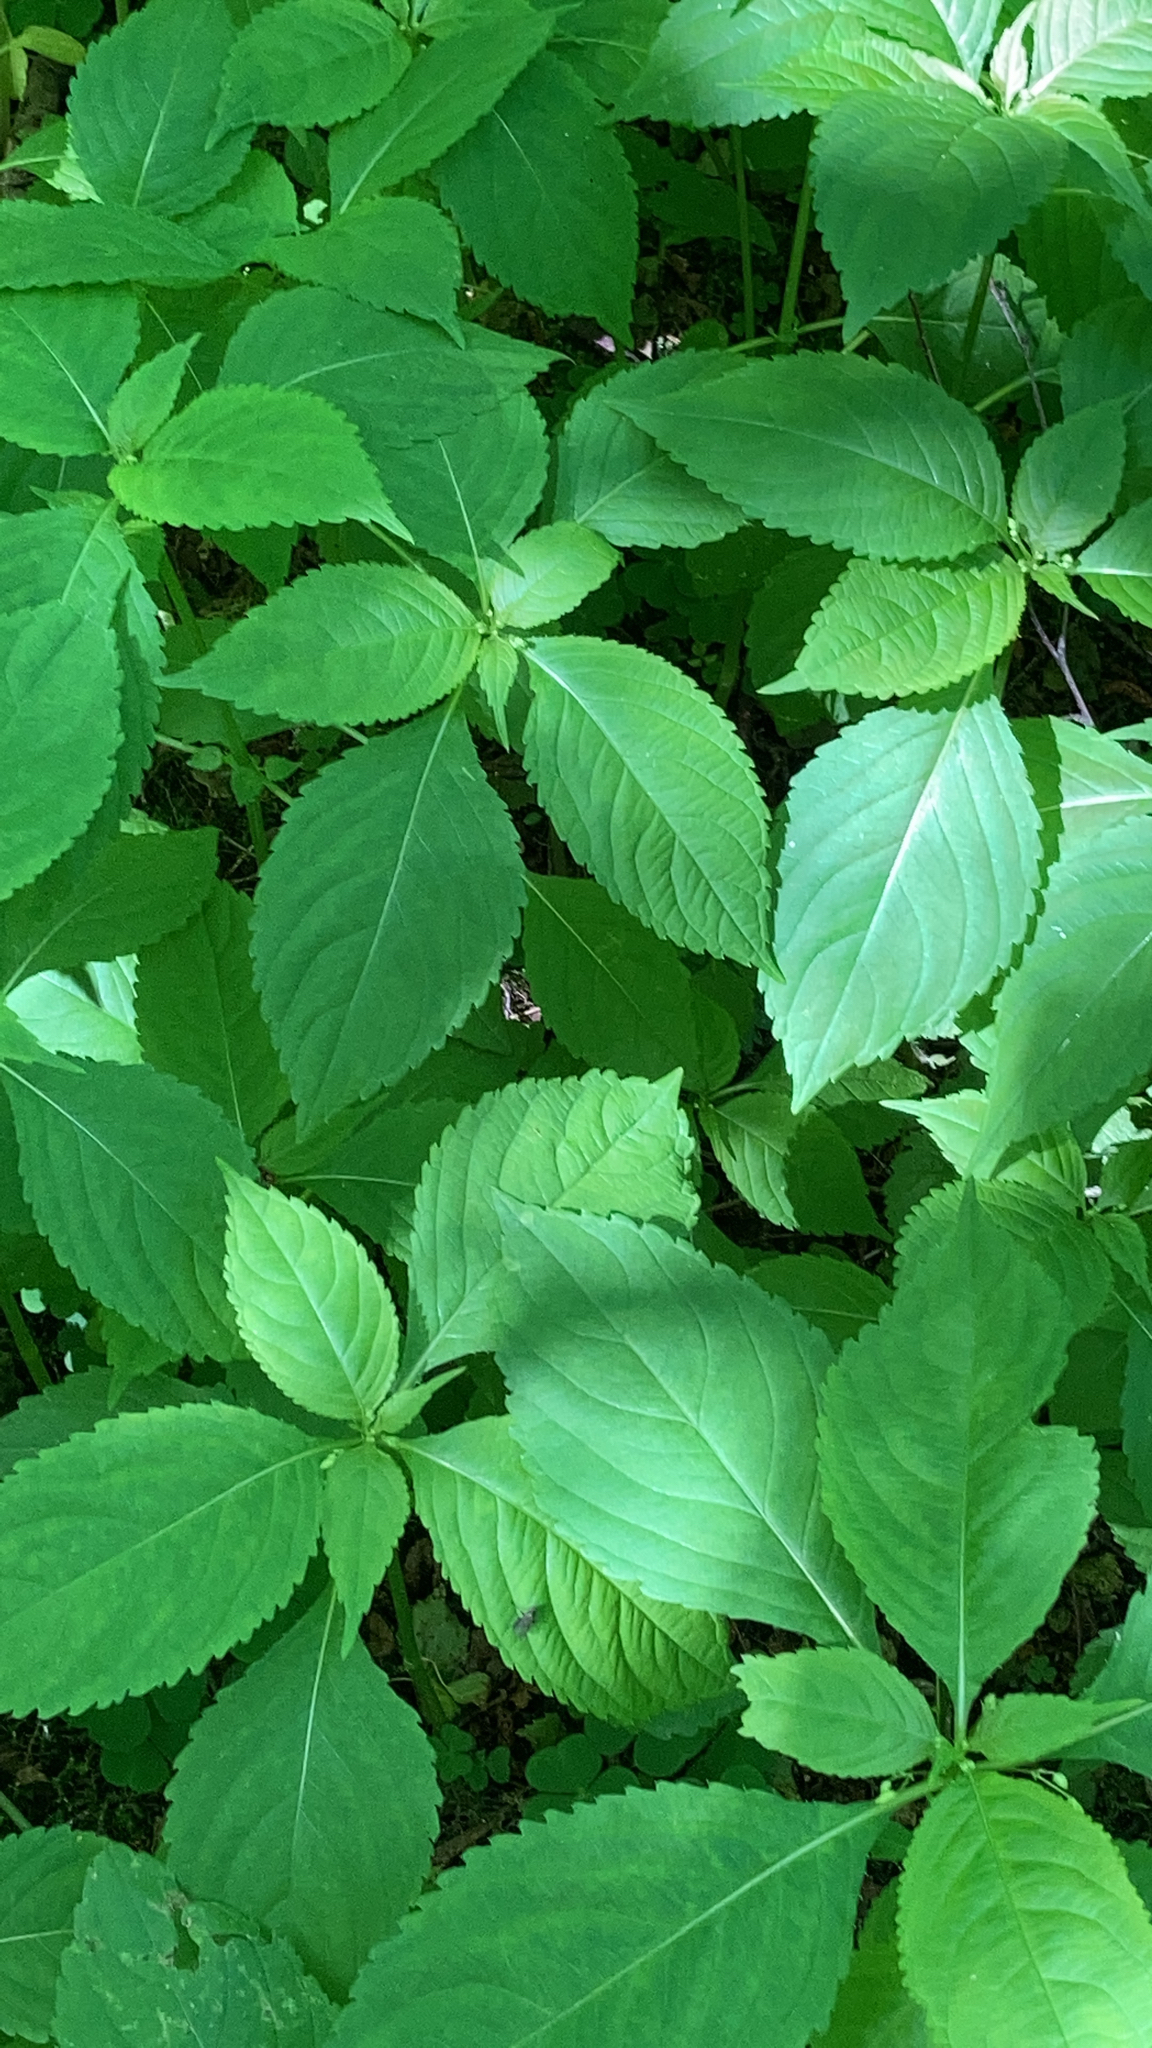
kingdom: Plantae
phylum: Tracheophyta
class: Magnoliopsida
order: Ericales
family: Balsaminaceae
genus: Impatiens
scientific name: Impatiens parviflora
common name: Small balsam
